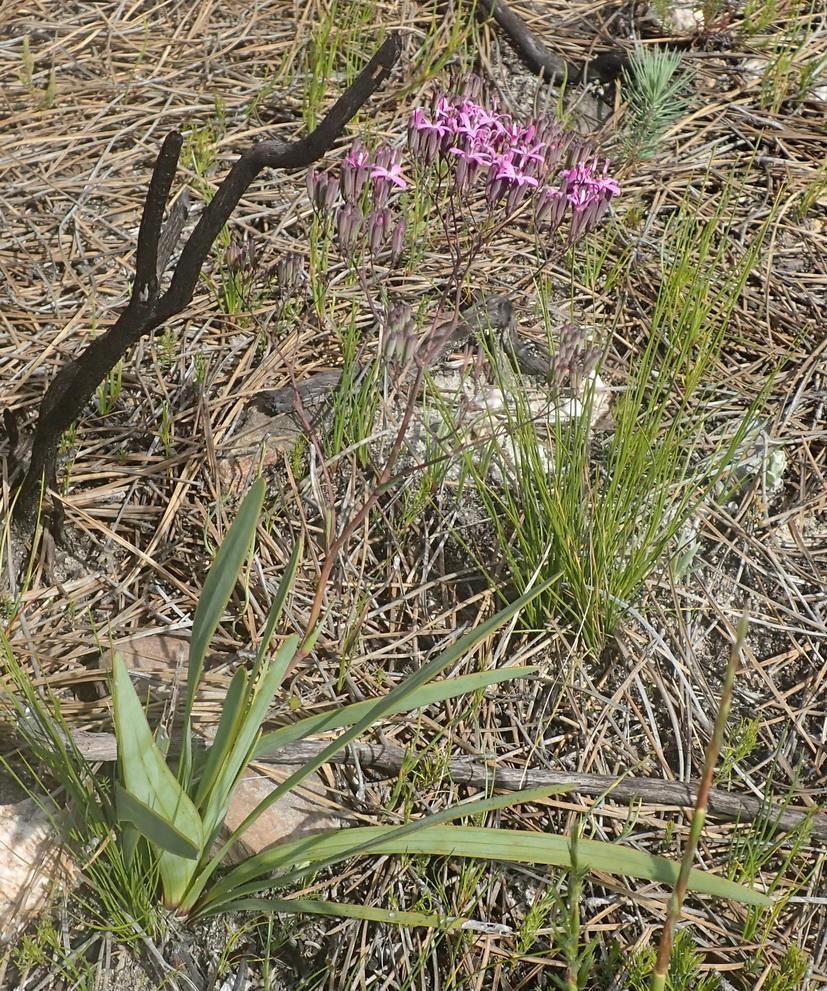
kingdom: Plantae
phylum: Tracheophyta
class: Magnoliopsida
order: Asterales
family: Asteraceae
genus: Corymbium
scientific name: Corymbium glabrum
